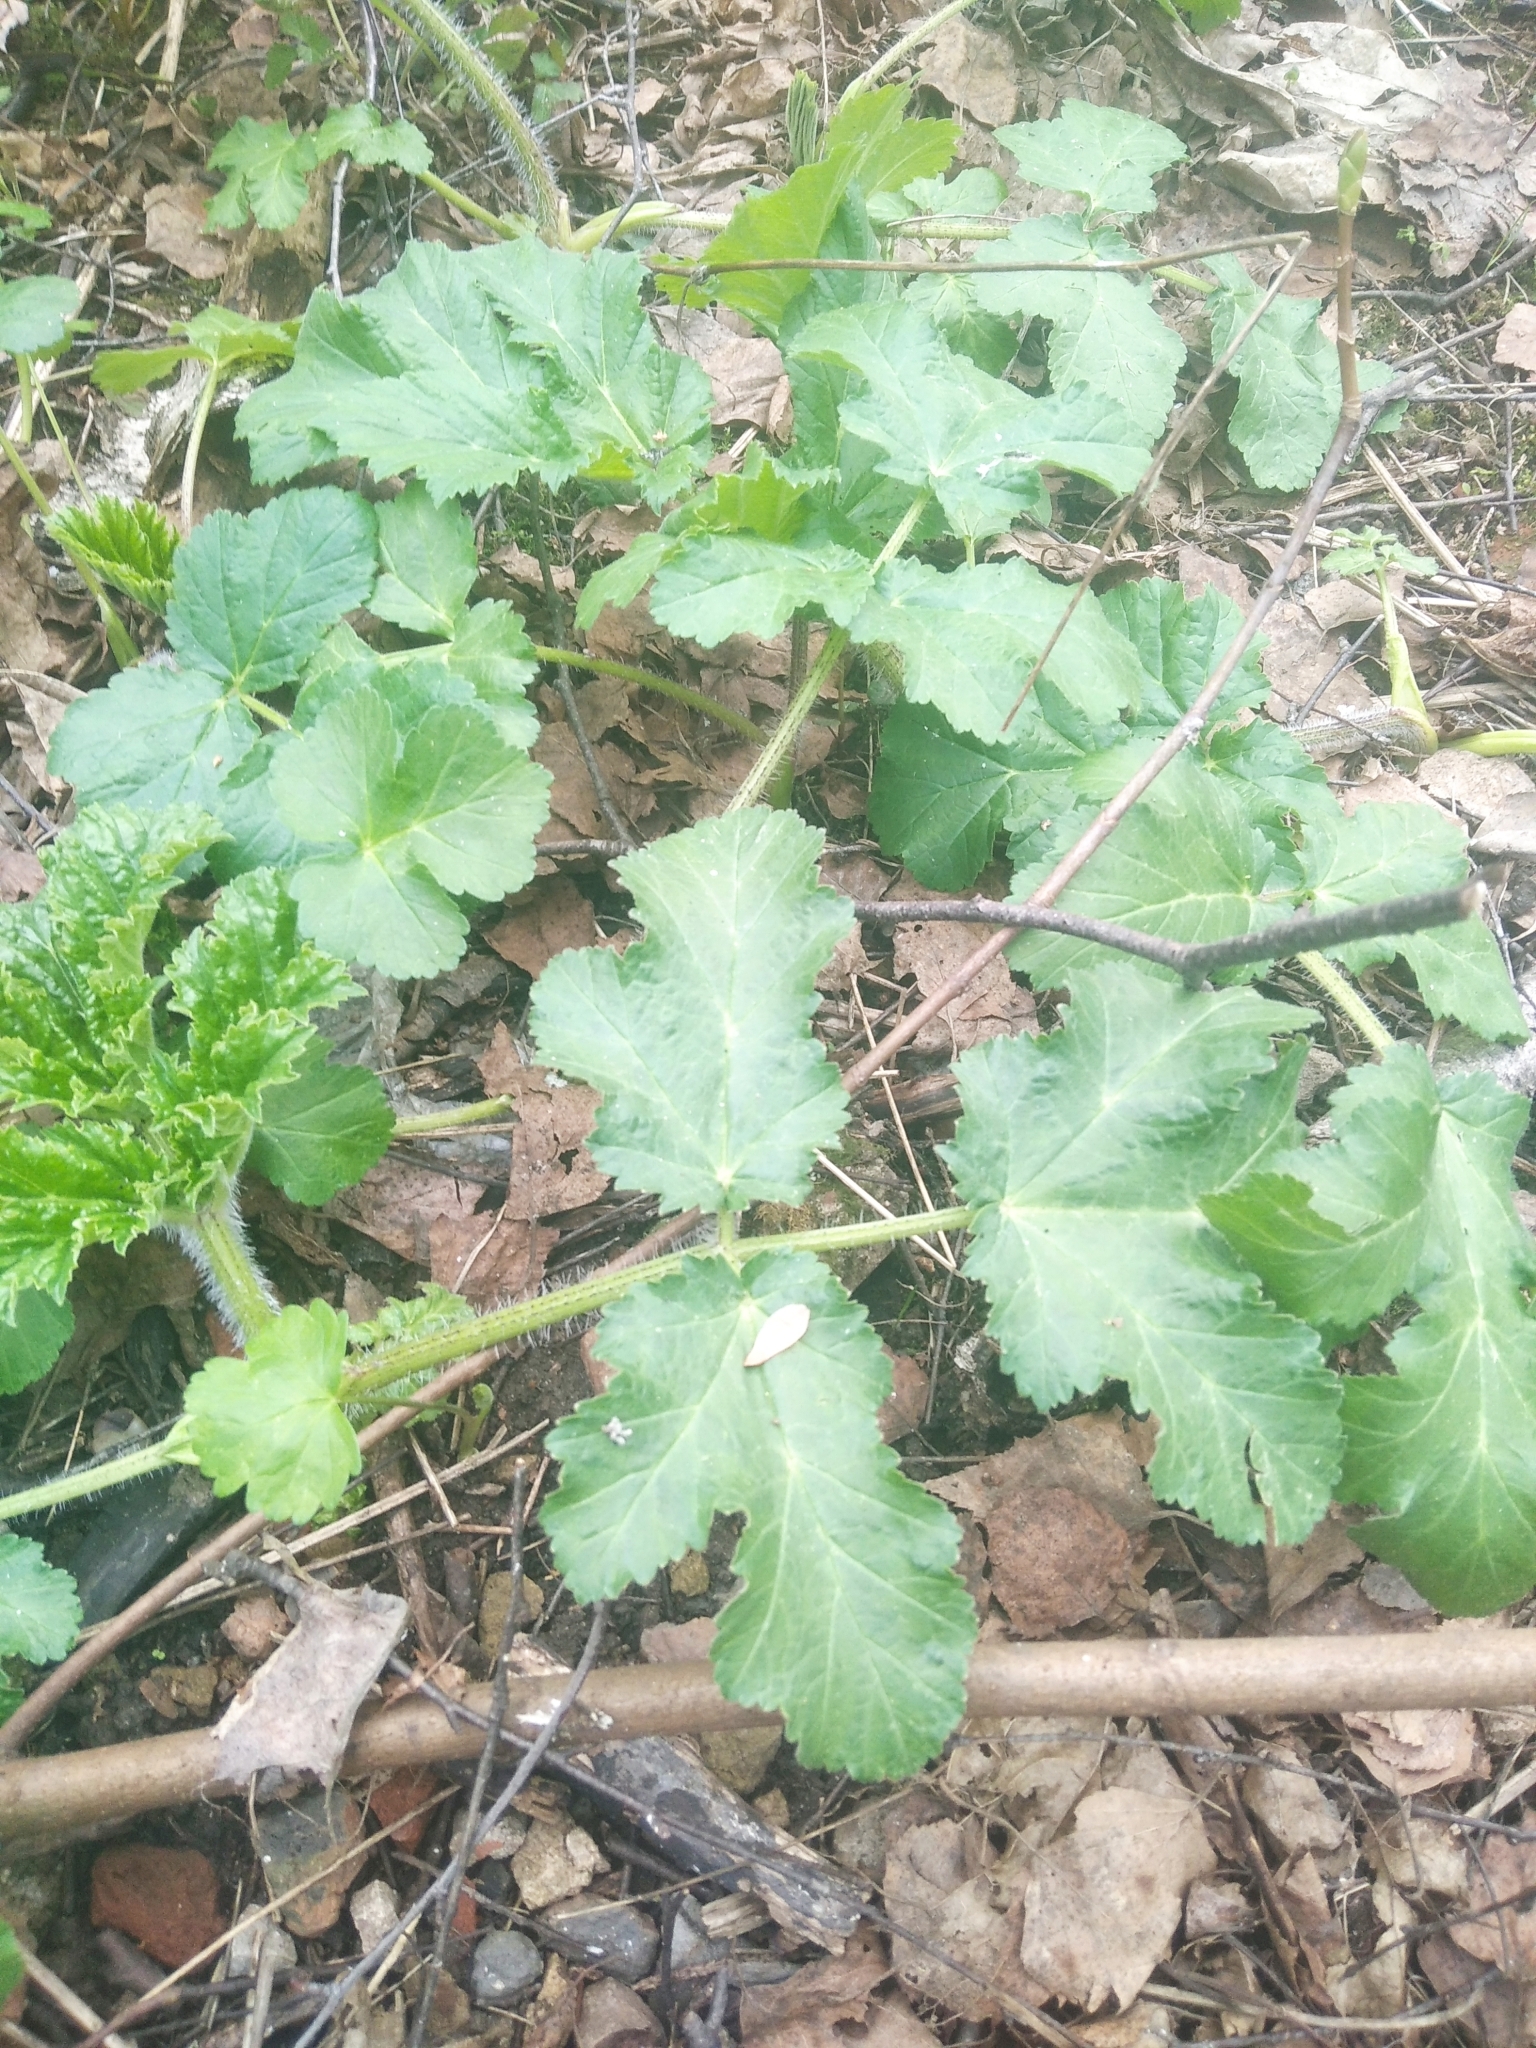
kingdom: Plantae
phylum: Tracheophyta
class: Magnoliopsida
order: Apiales
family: Apiaceae
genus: Heracleum
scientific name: Heracleum sphondylium
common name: Hogweed
